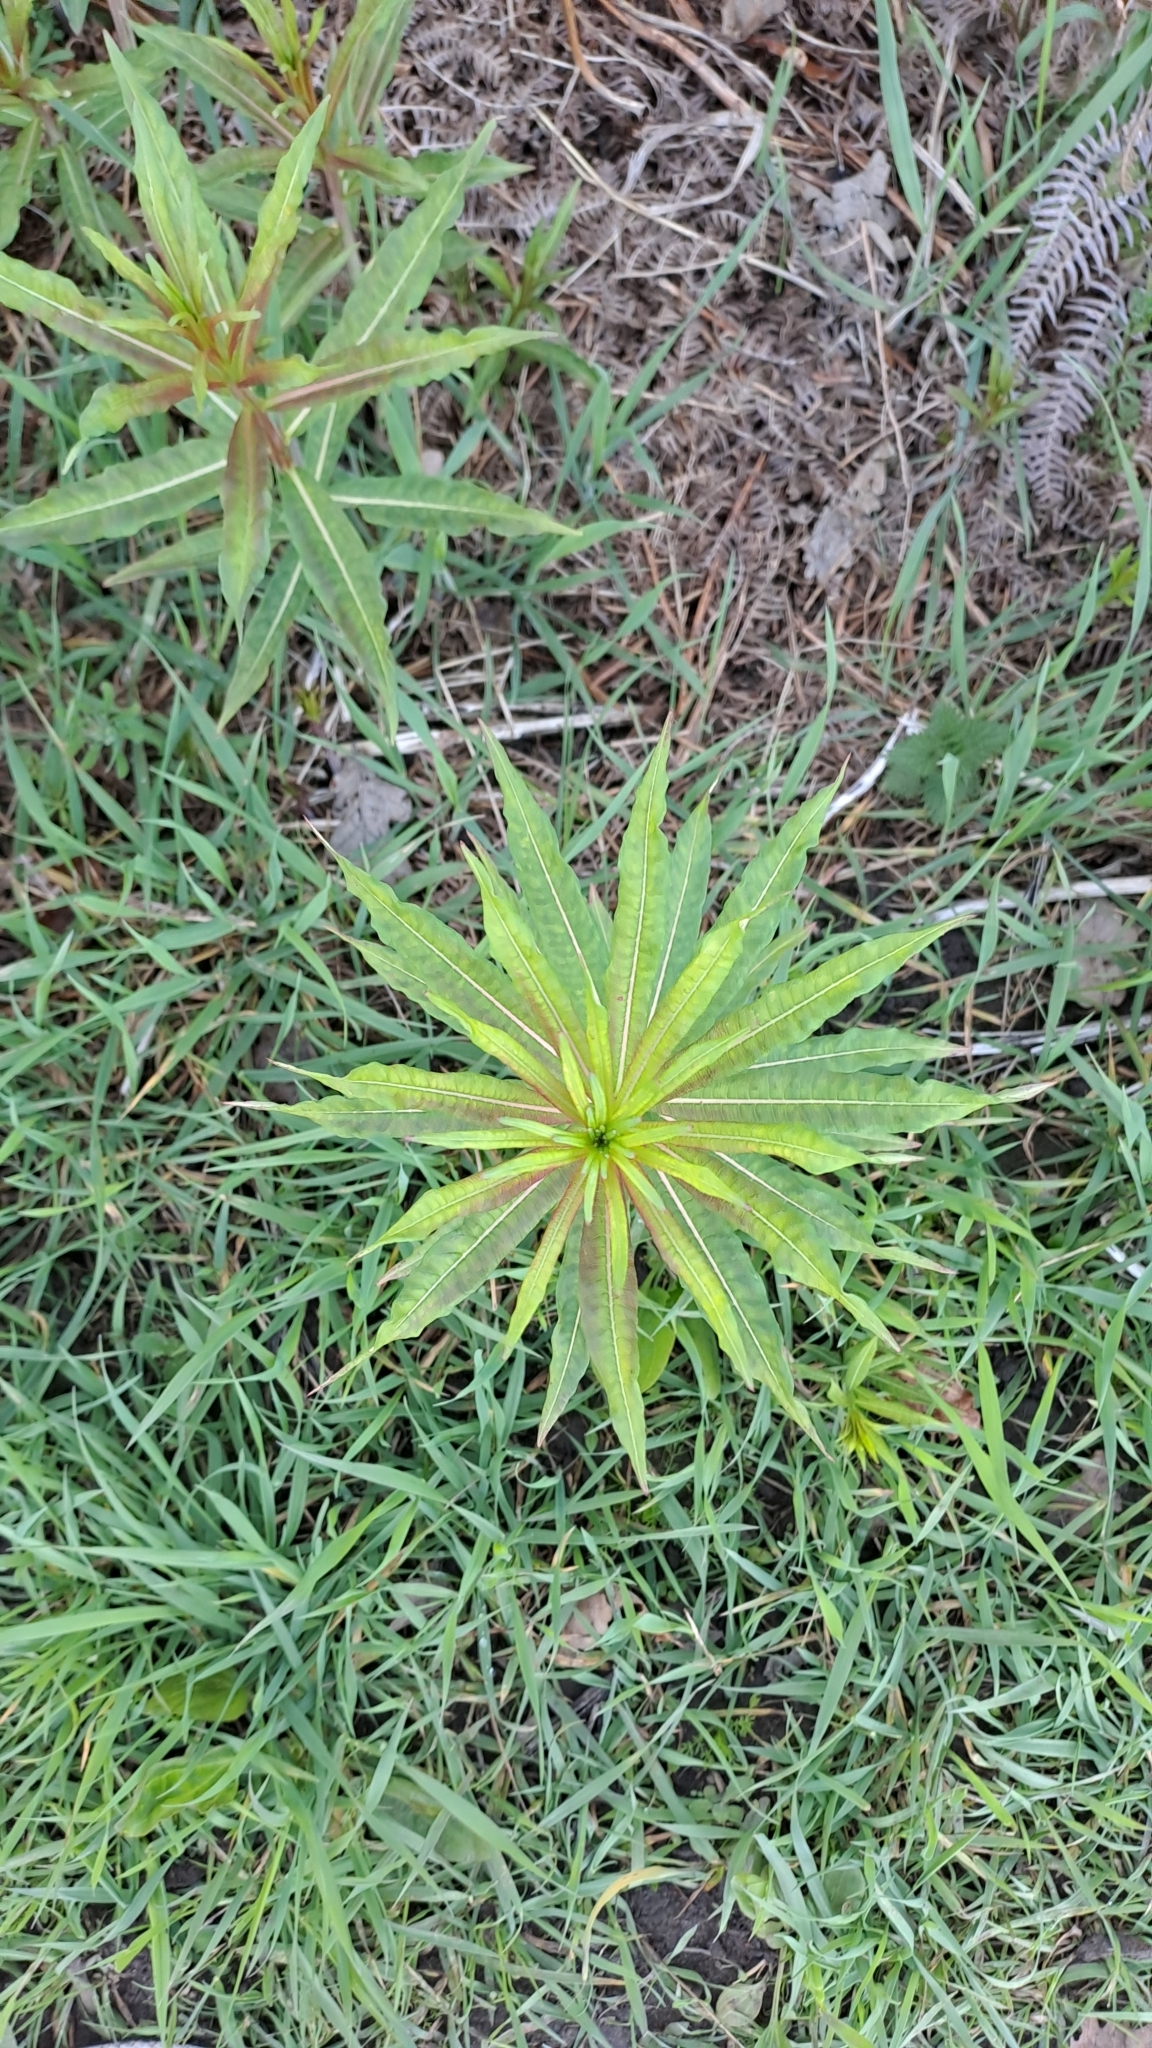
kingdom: Plantae
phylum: Tracheophyta
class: Magnoliopsida
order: Myrtales
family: Onagraceae
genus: Chamaenerion
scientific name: Chamaenerion angustifolium
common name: Fireweed
